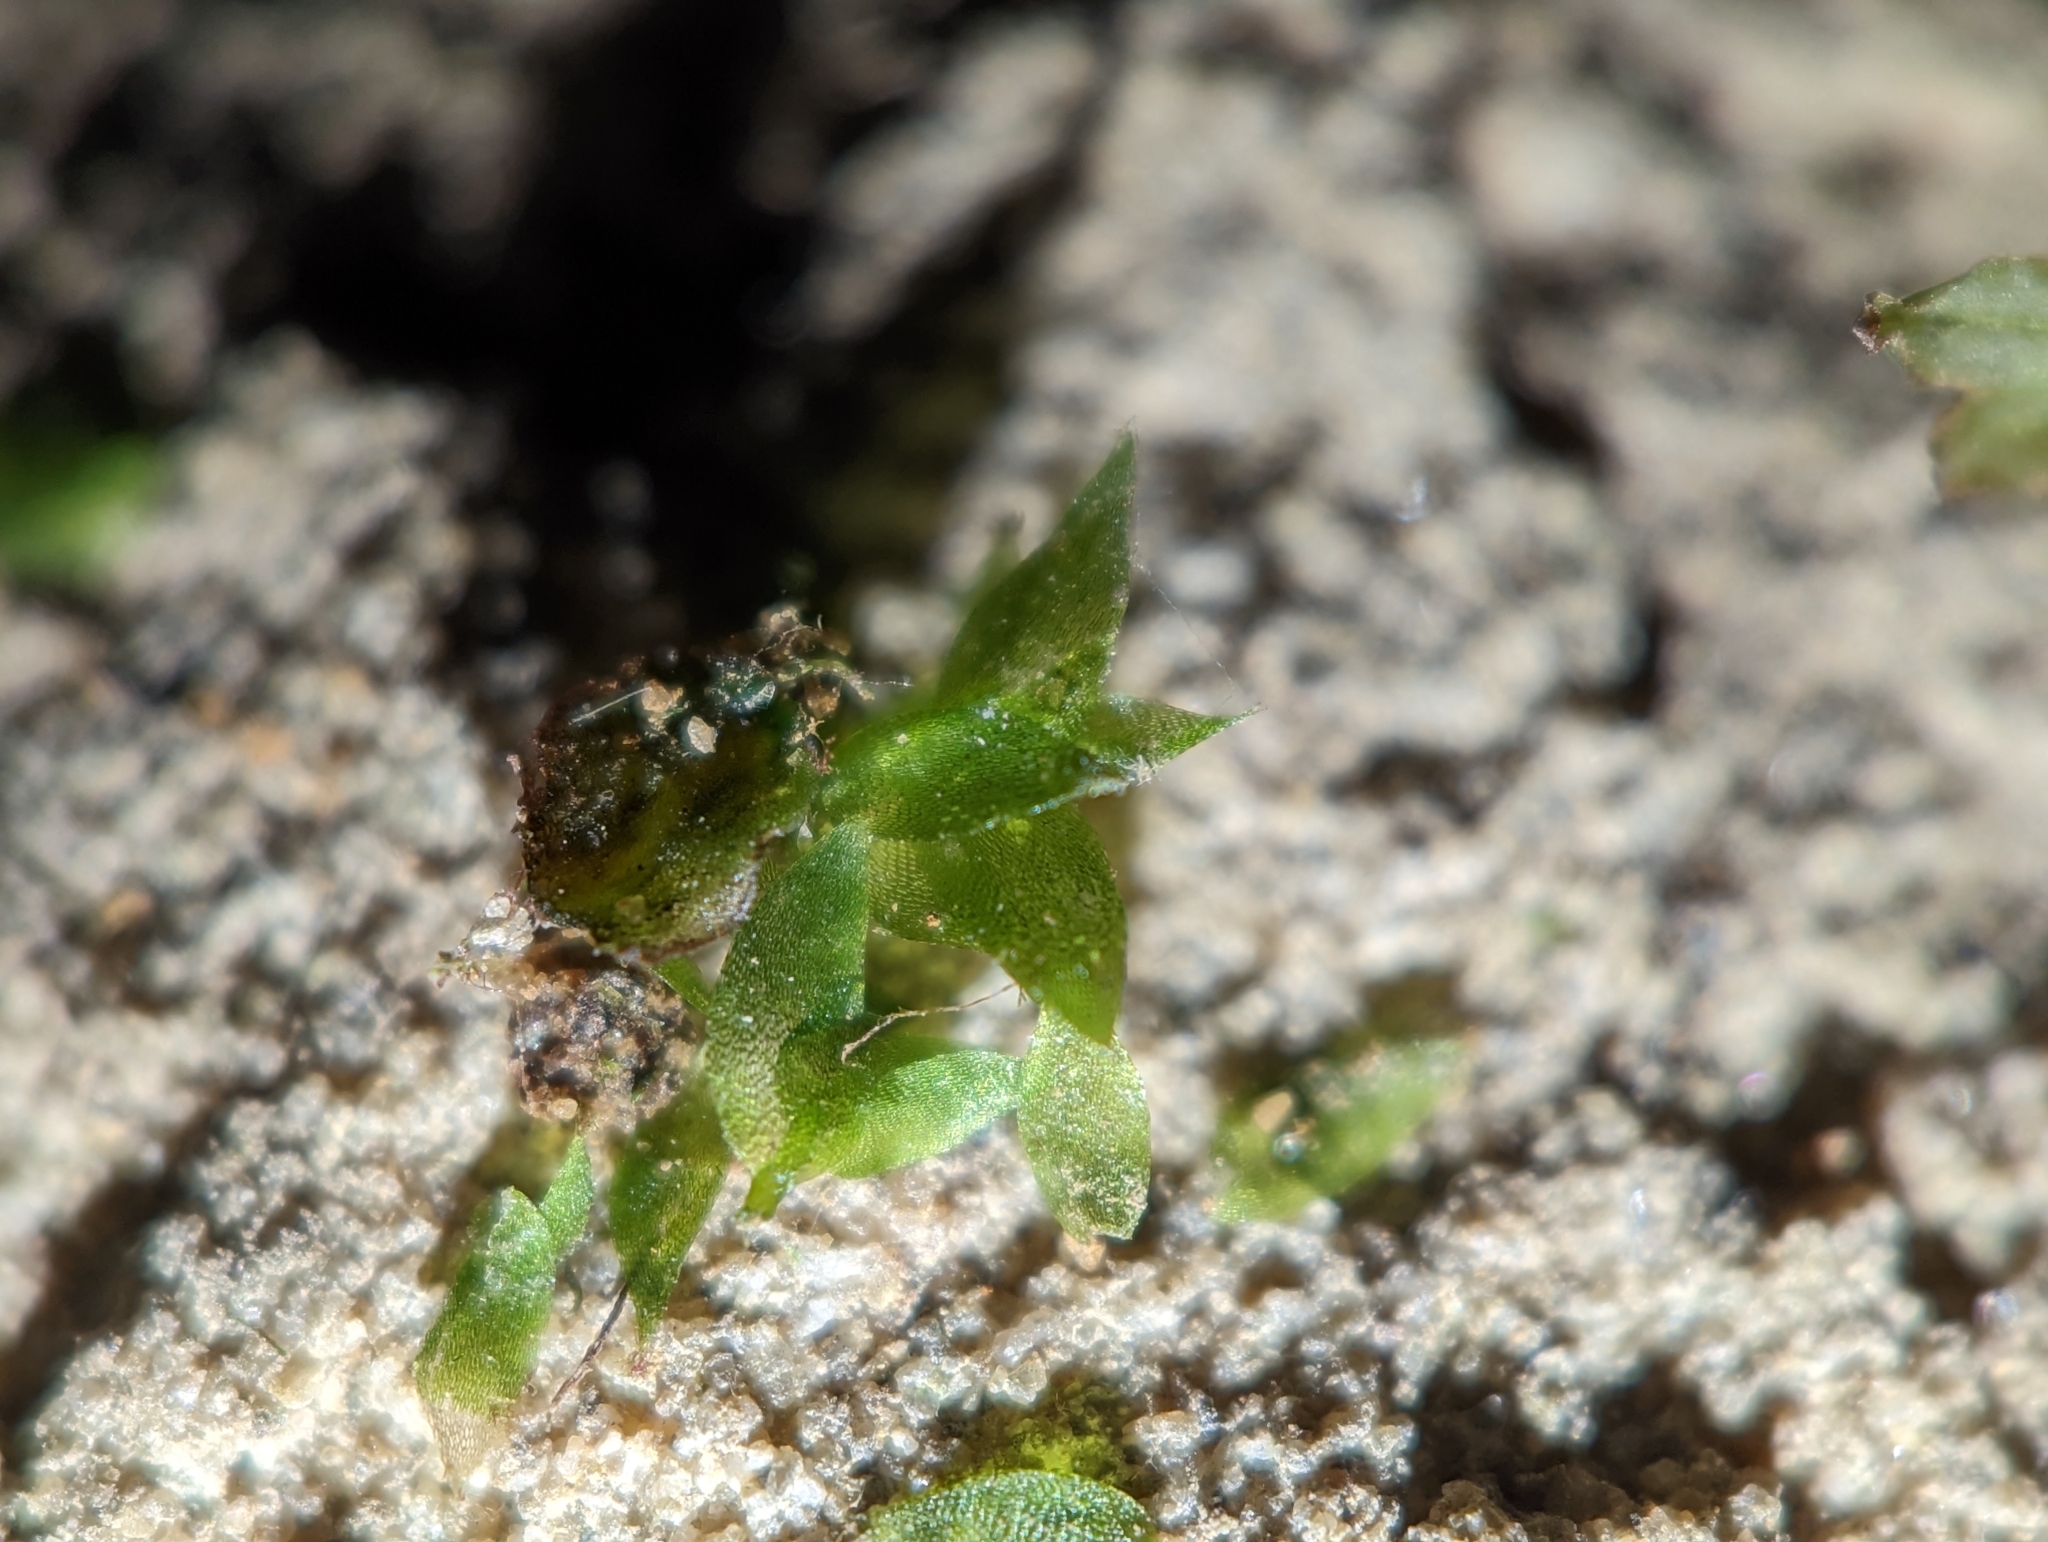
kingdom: Plantae
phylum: Bryophyta
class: Bryopsida
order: Hookeriales
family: Hookeriaceae
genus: Hookeria
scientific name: Hookeria acutifolia
